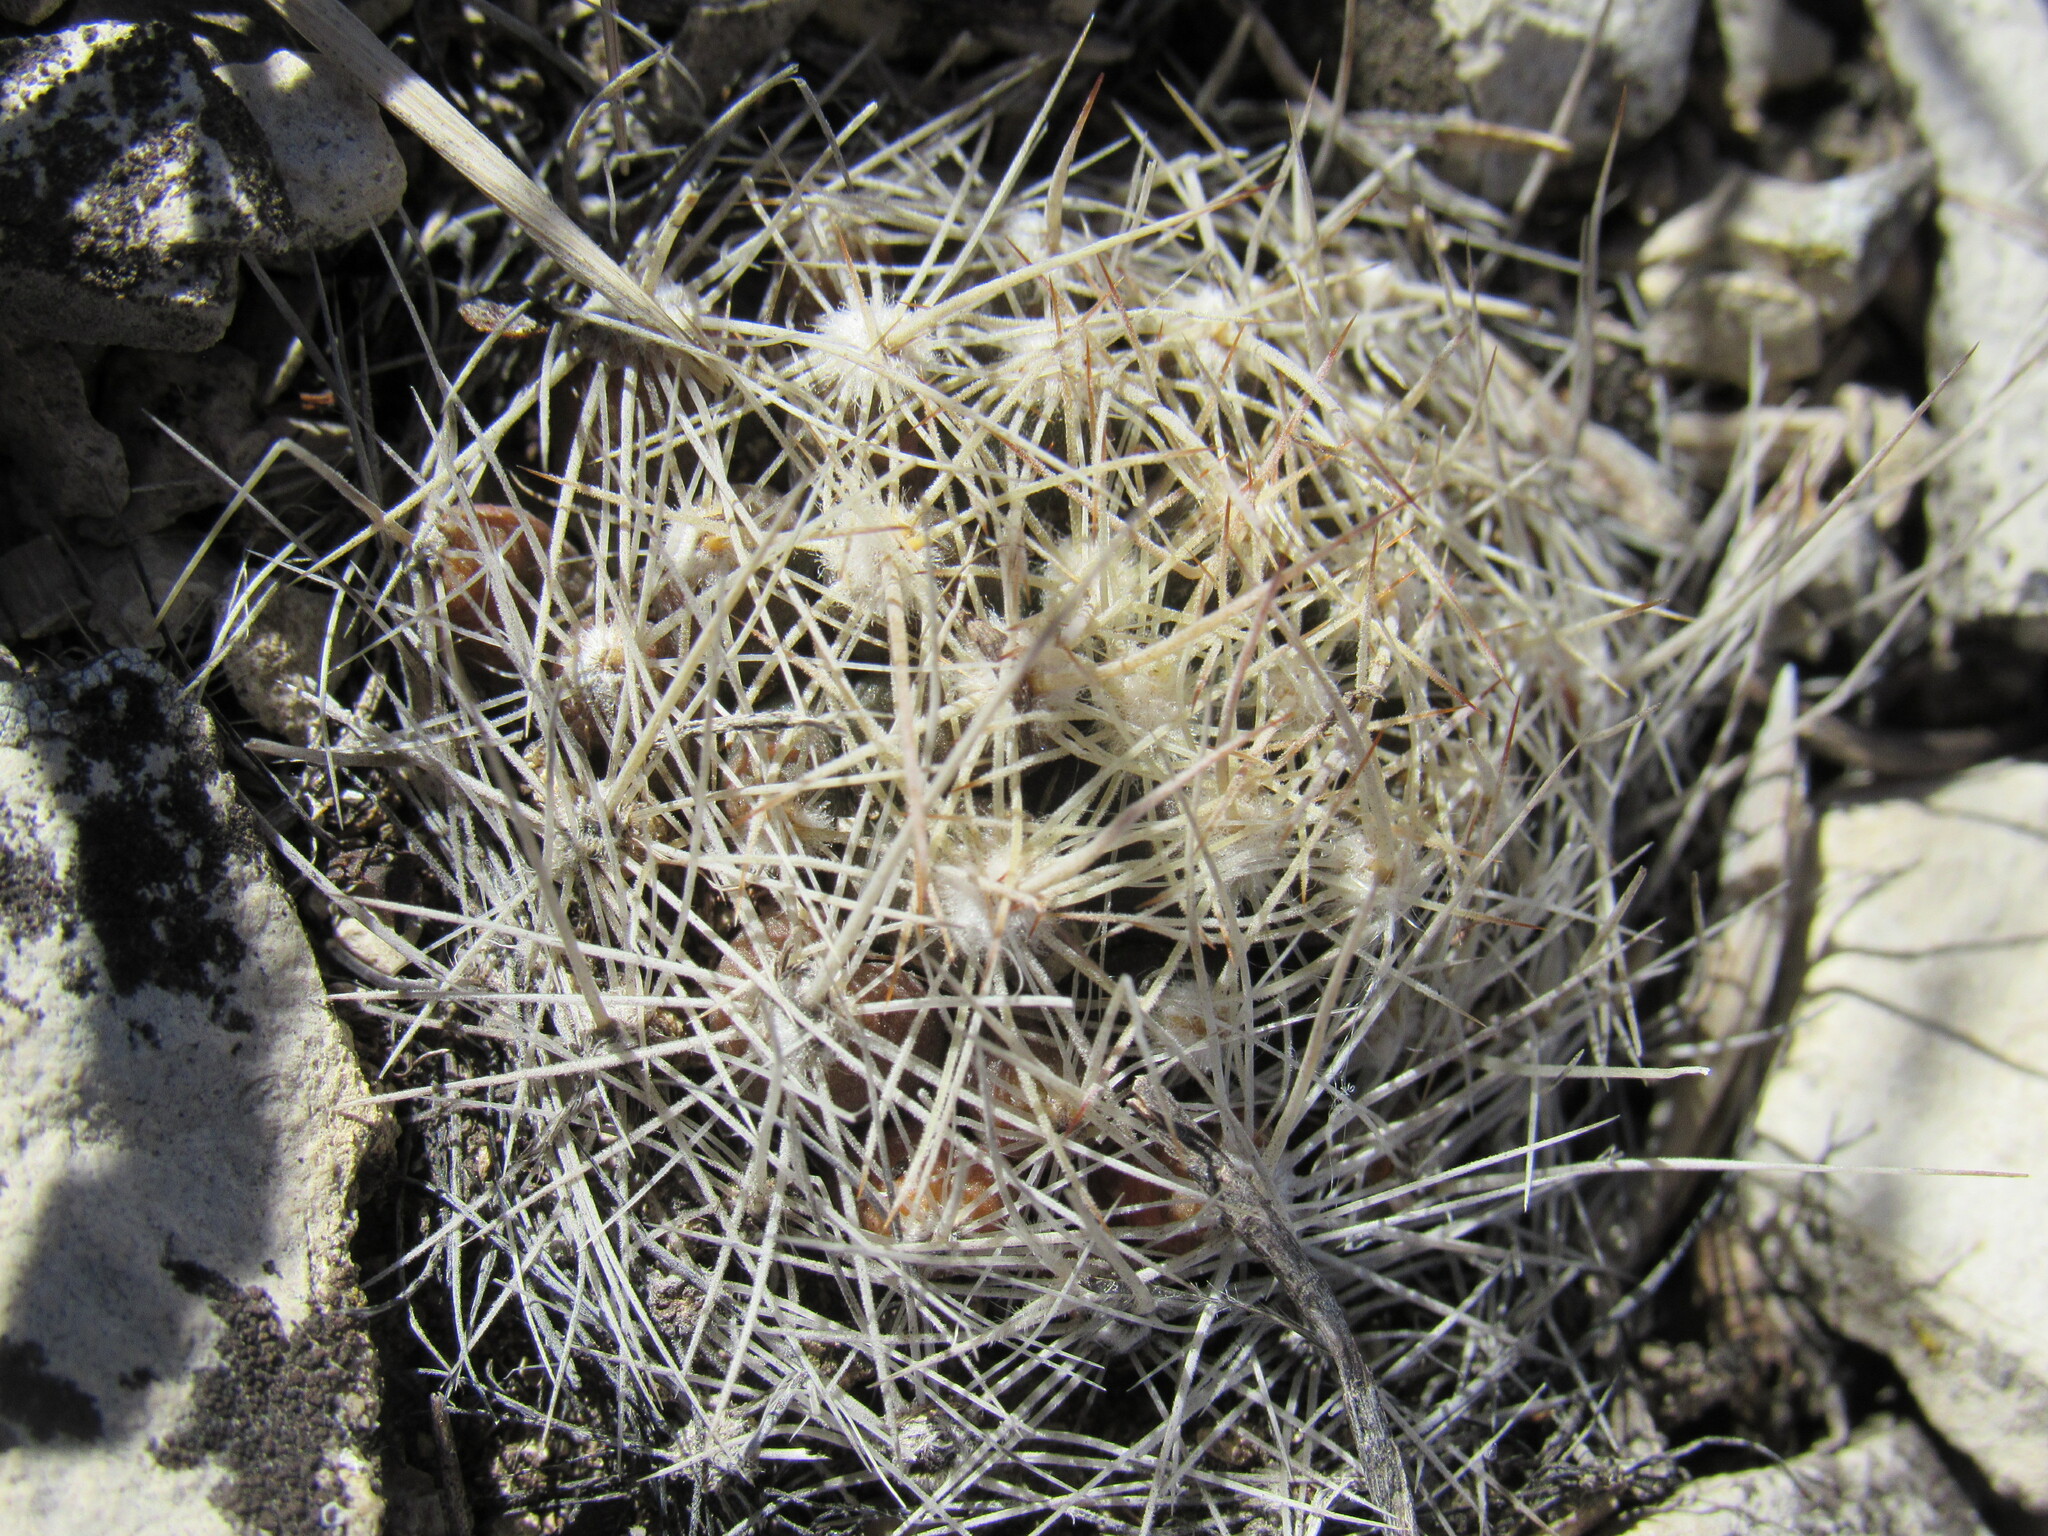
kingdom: Plantae
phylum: Tracheophyta
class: Magnoliopsida
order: Caryophyllales
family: Cactaceae
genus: Pelecyphora
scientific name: Pelecyphora missouriensis
